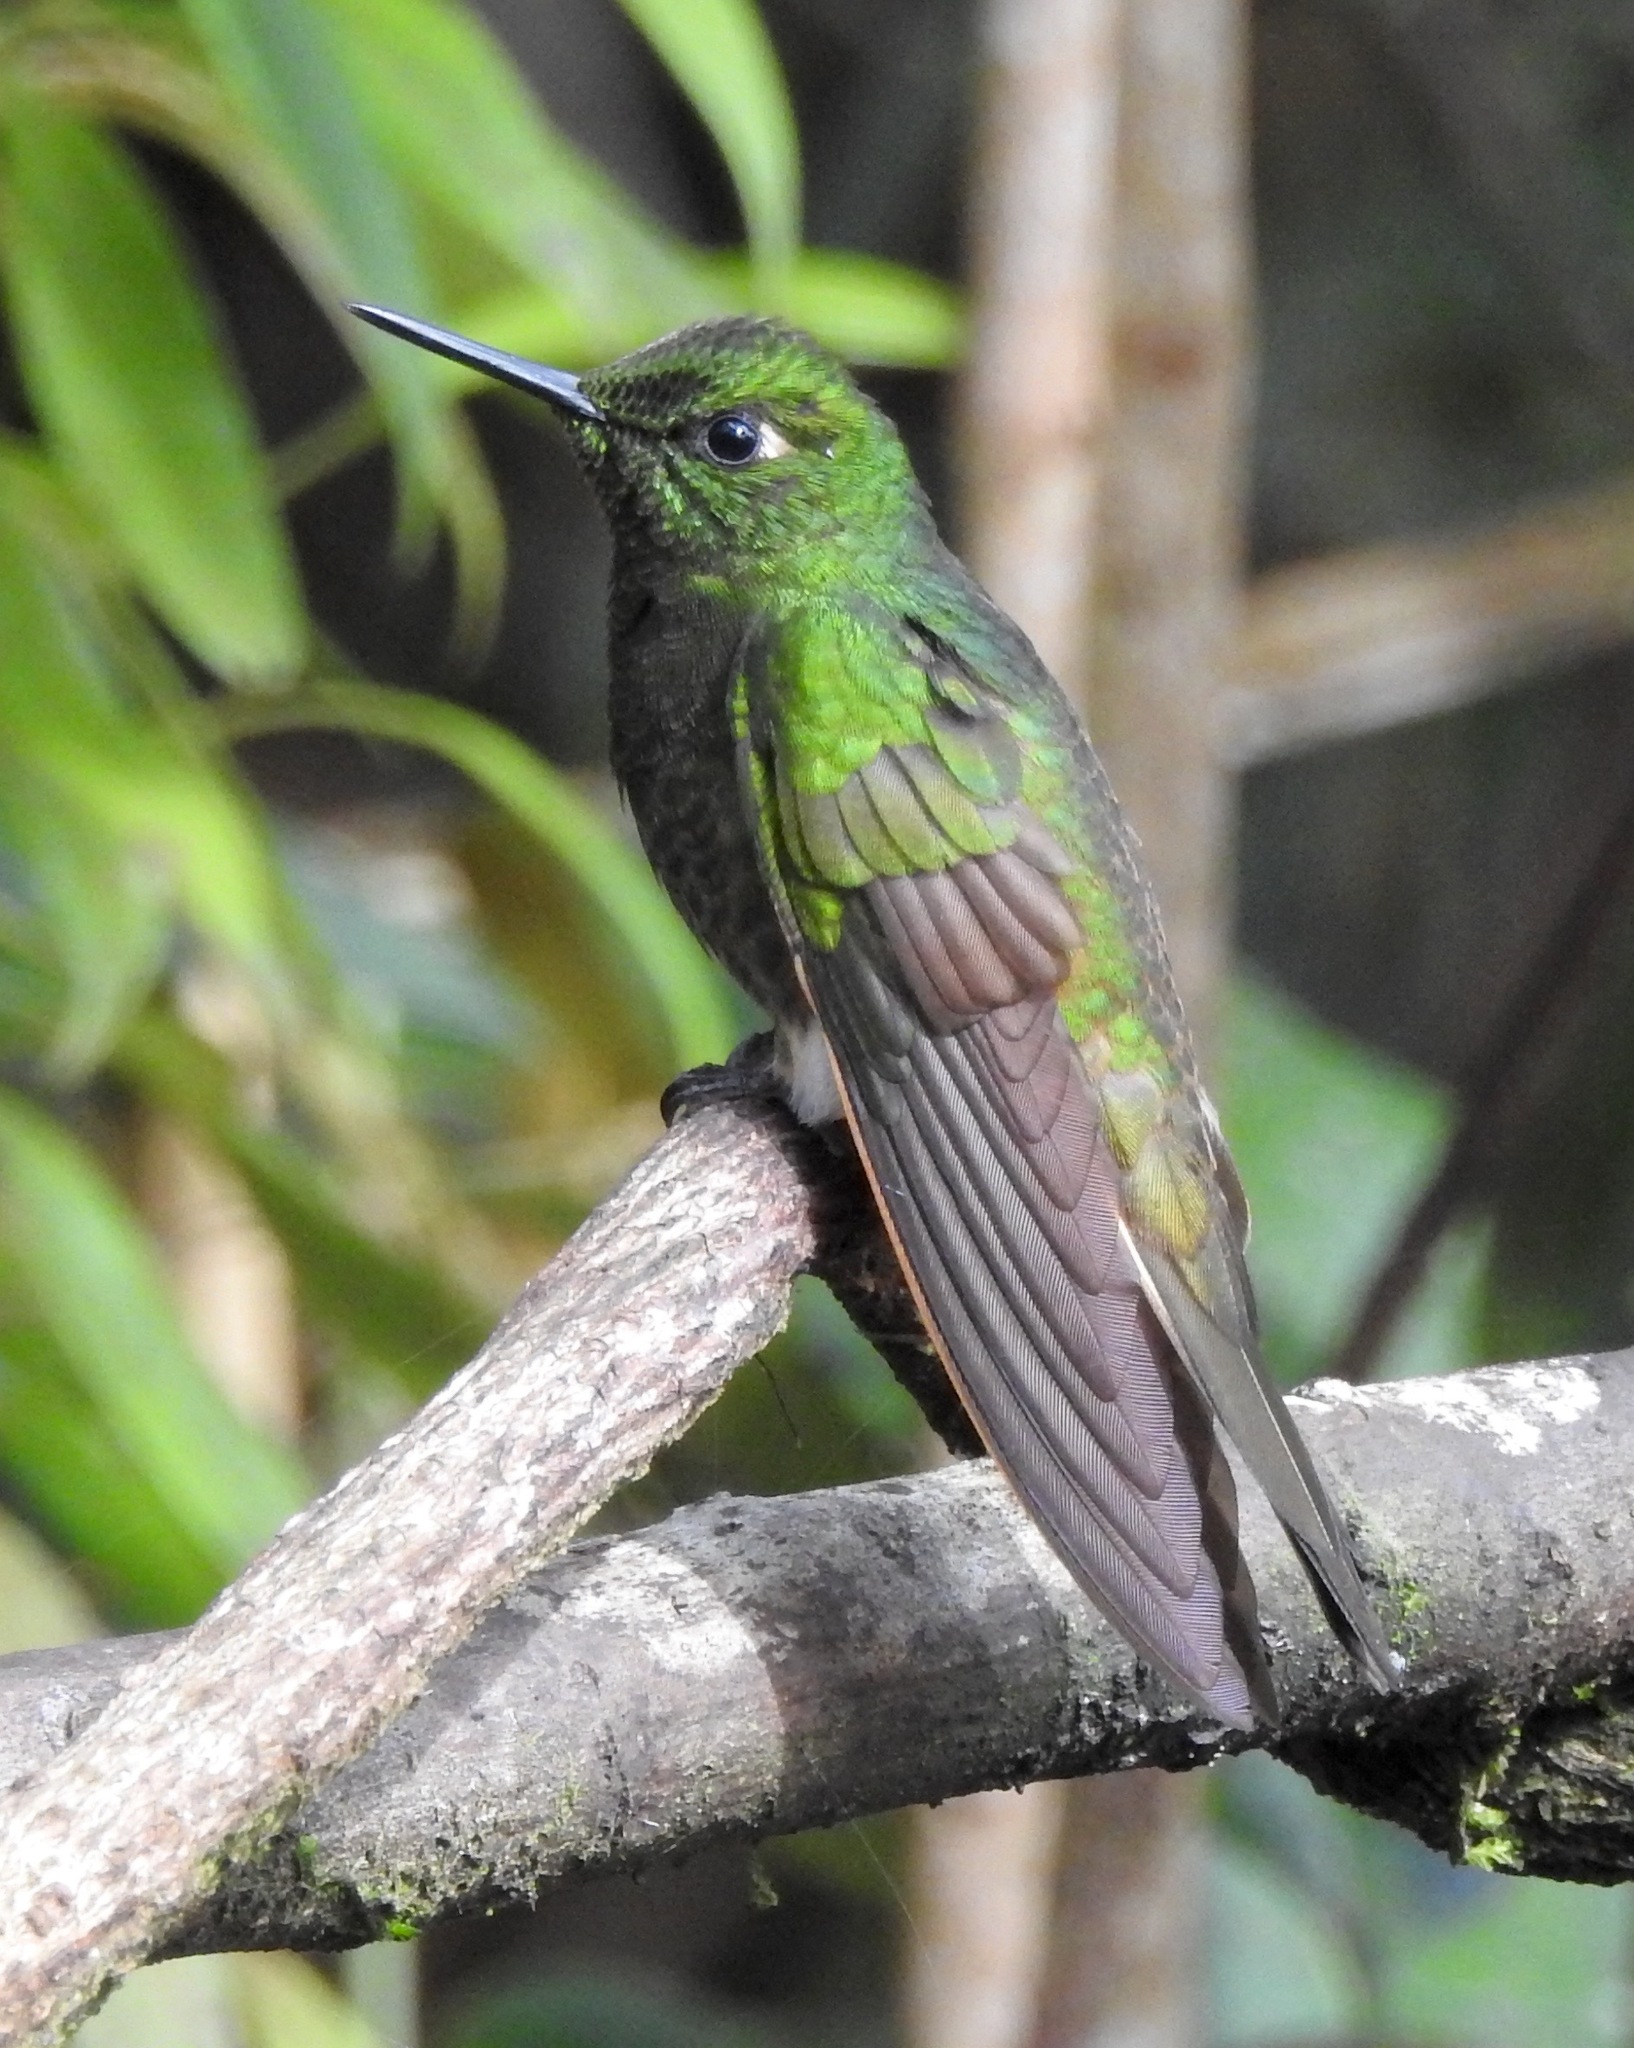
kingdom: Animalia
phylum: Chordata
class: Aves
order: Apodiformes
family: Trochilidae
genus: Metallura
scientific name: Metallura tyrianthina
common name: Tyrian metaltail
